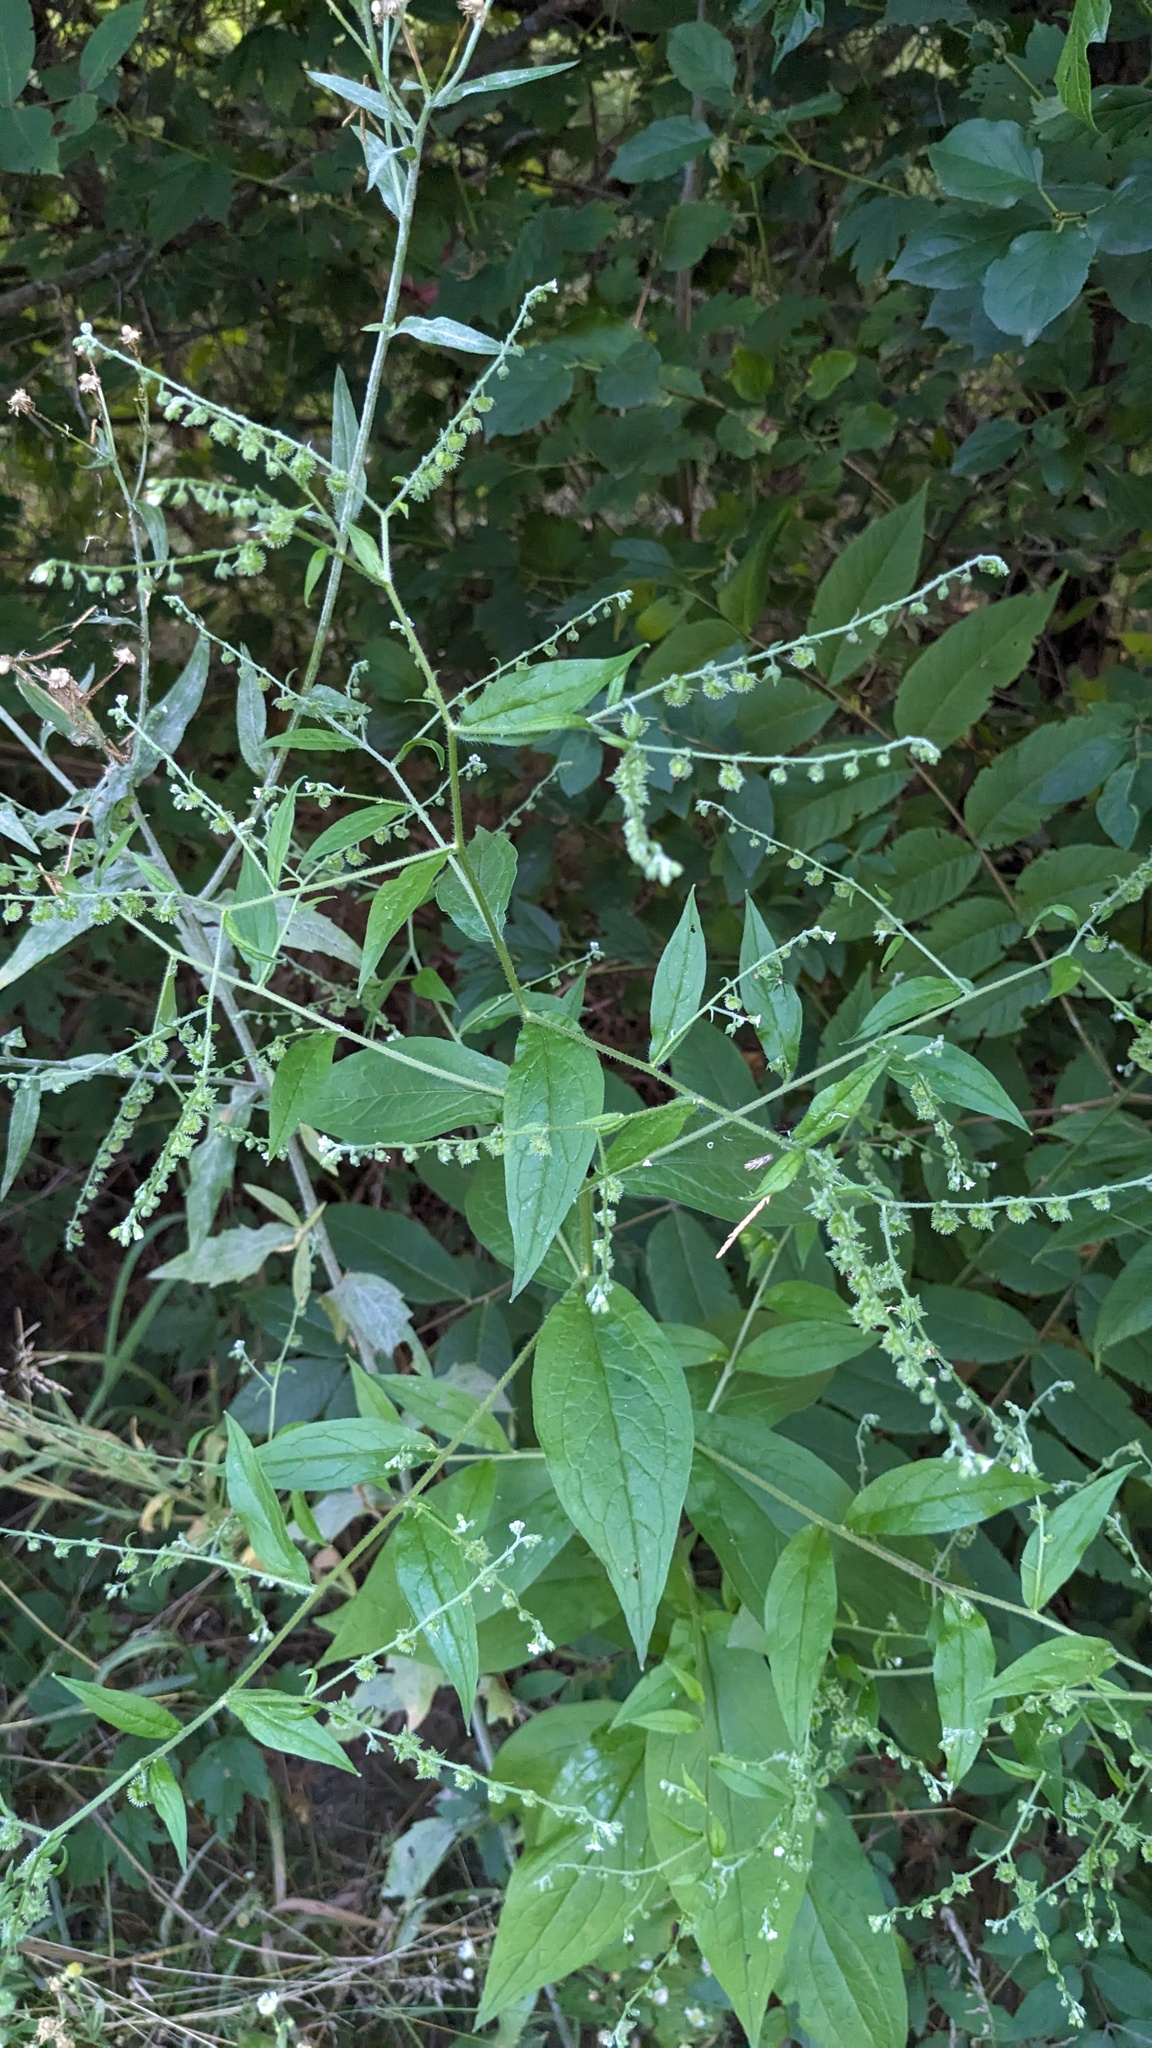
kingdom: Plantae
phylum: Tracheophyta
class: Magnoliopsida
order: Boraginales
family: Boraginaceae
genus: Hackelia
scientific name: Hackelia virginiana
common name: Beggar's-lice
